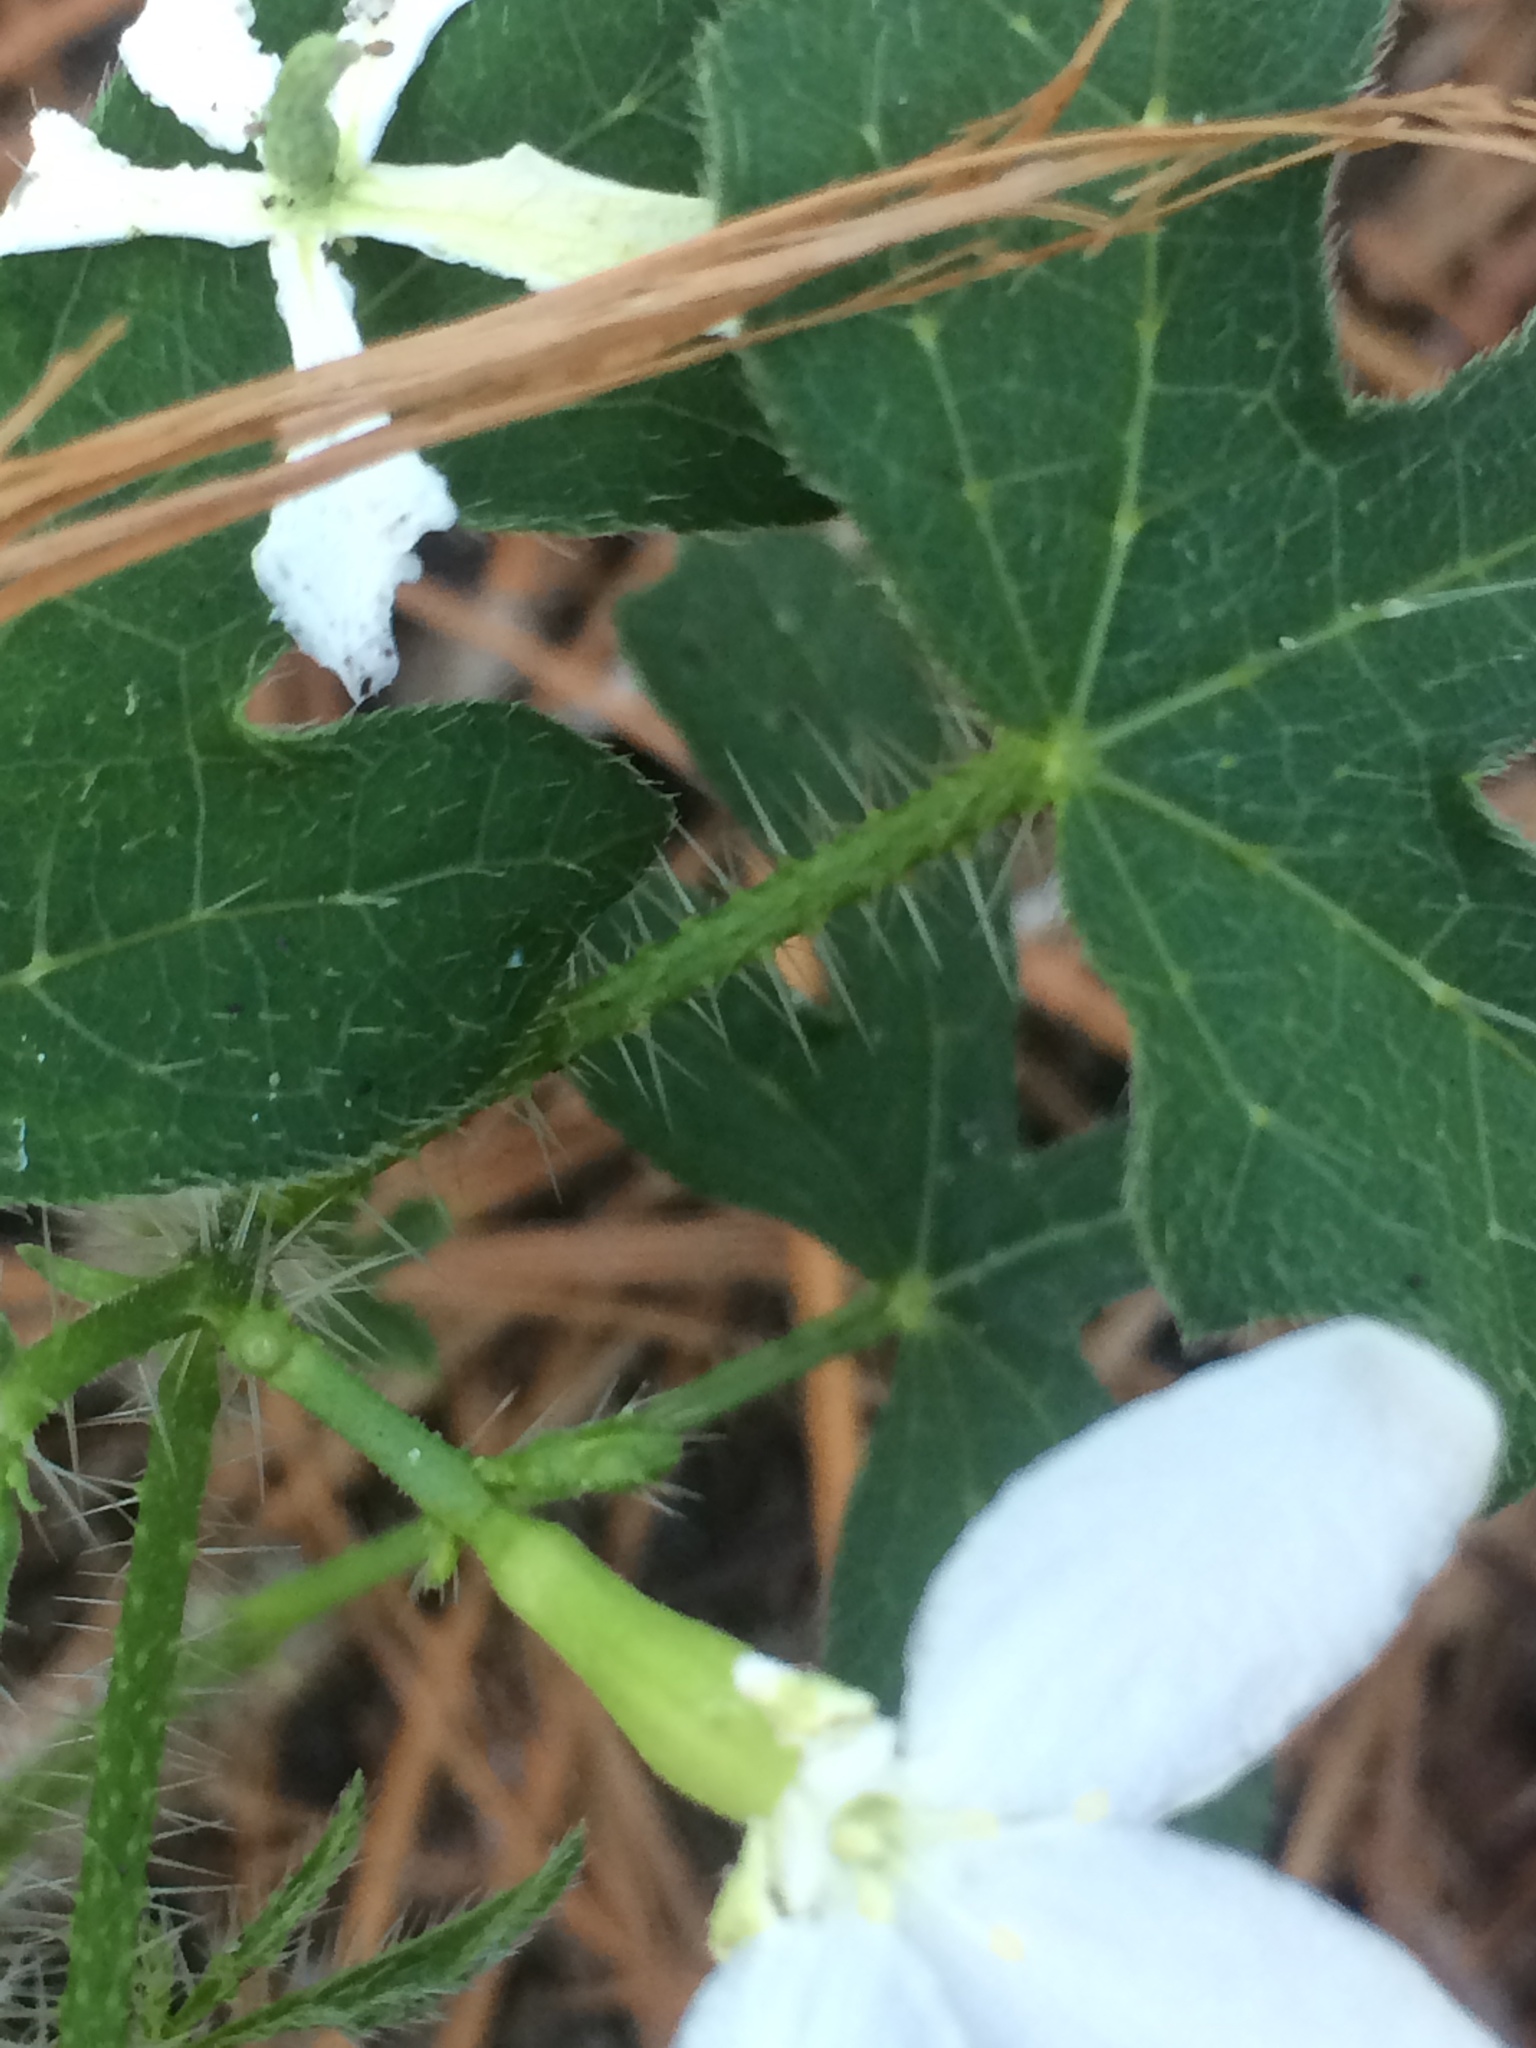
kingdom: Plantae
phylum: Tracheophyta
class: Magnoliopsida
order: Malpighiales
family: Euphorbiaceae
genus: Cnidoscolus
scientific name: Cnidoscolus stimulosus
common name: Bull-nettle
